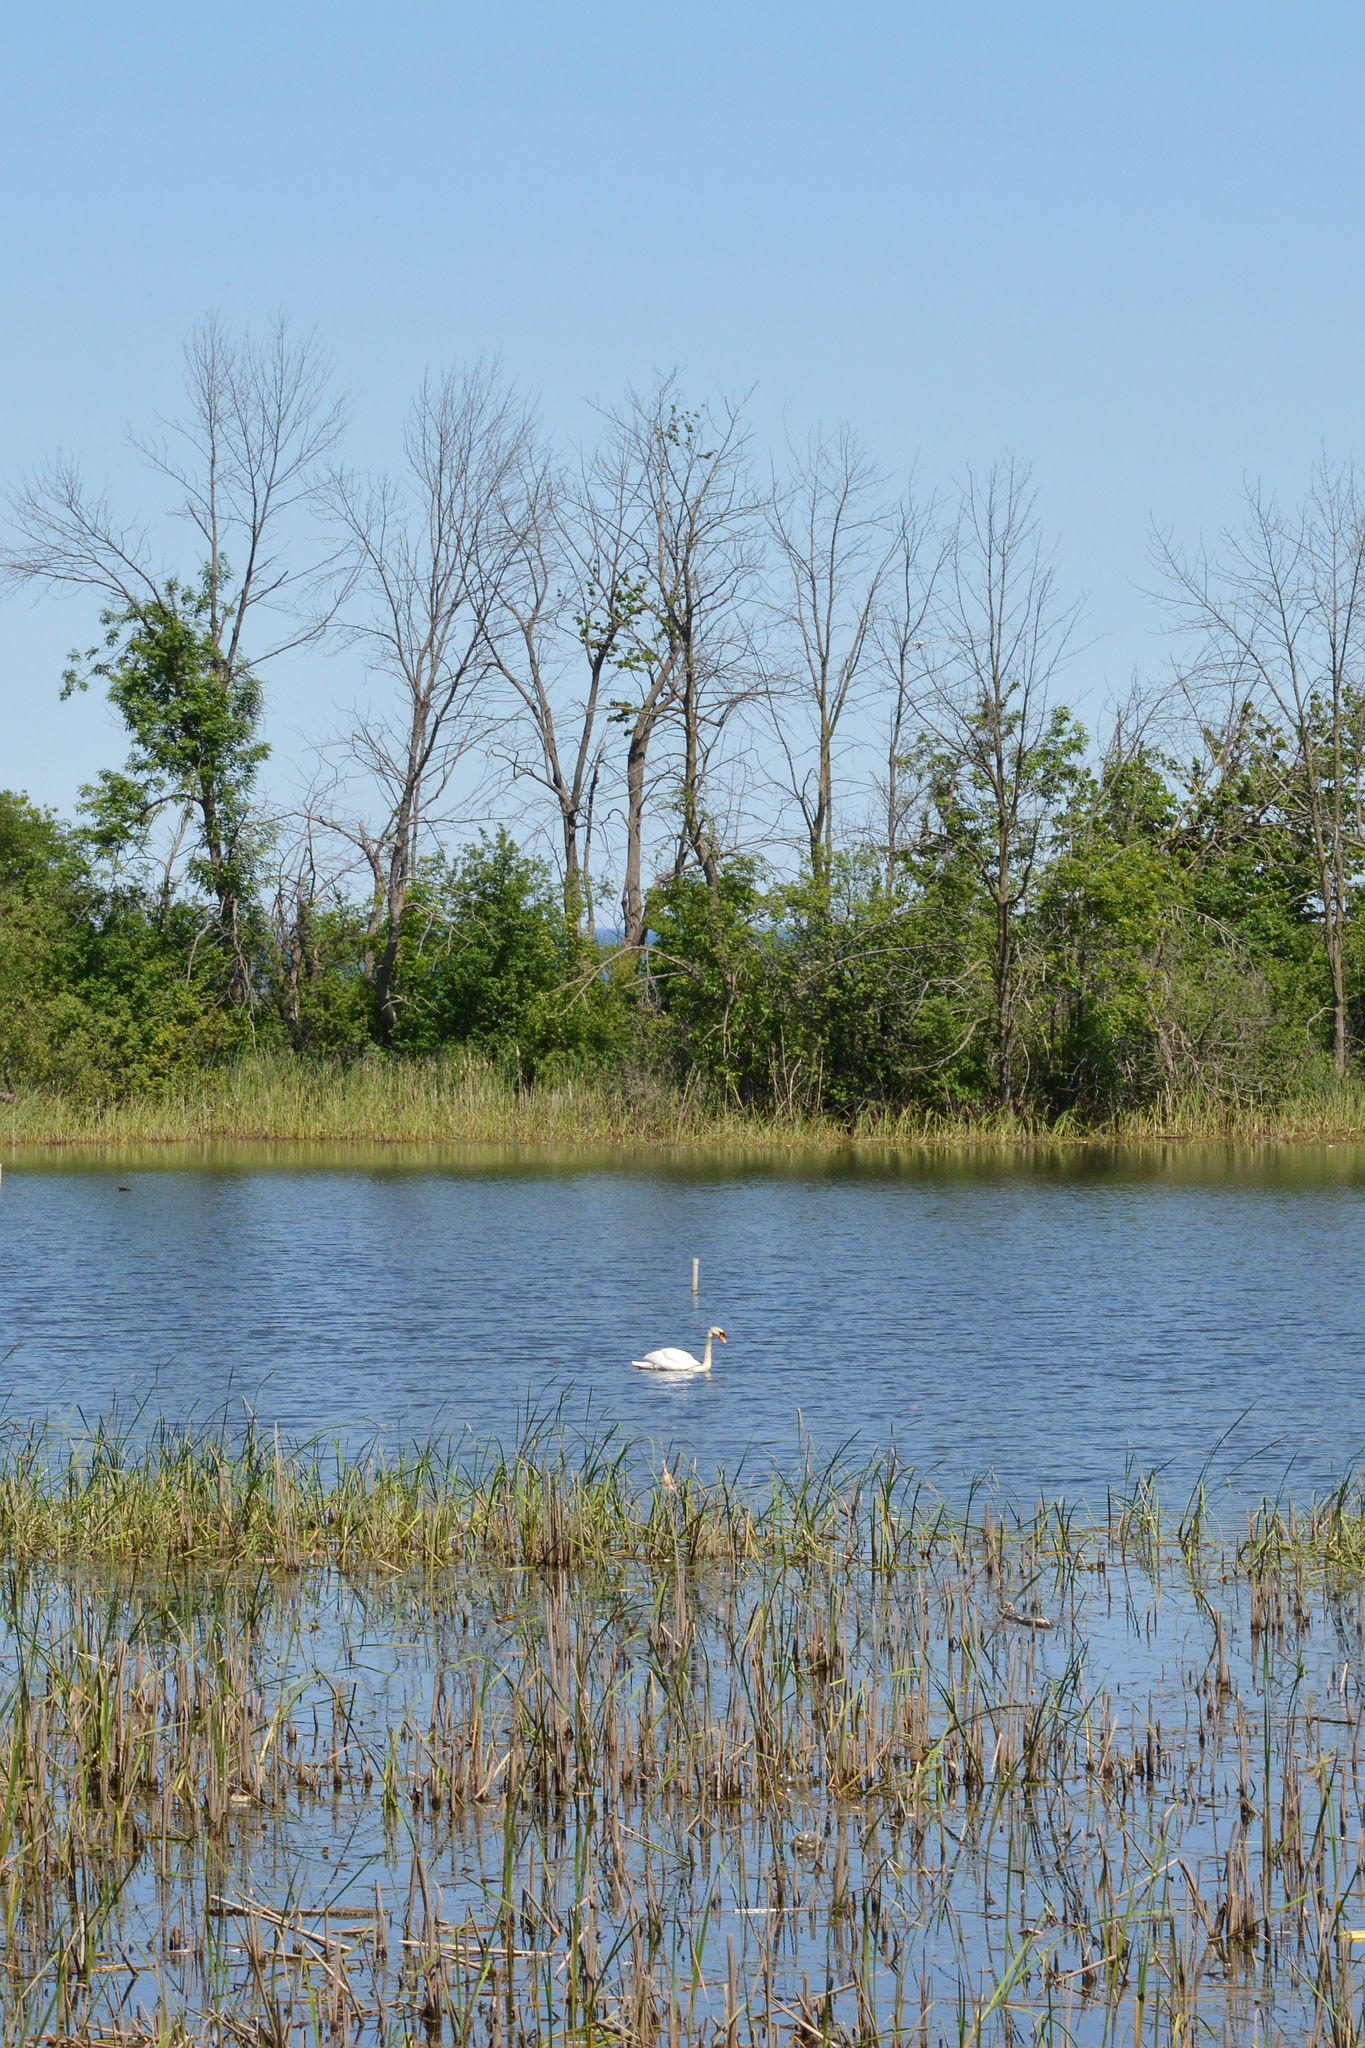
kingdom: Animalia
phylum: Chordata
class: Aves
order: Anseriformes
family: Anatidae
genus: Cygnus
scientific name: Cygnus olor
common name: Mute swan
